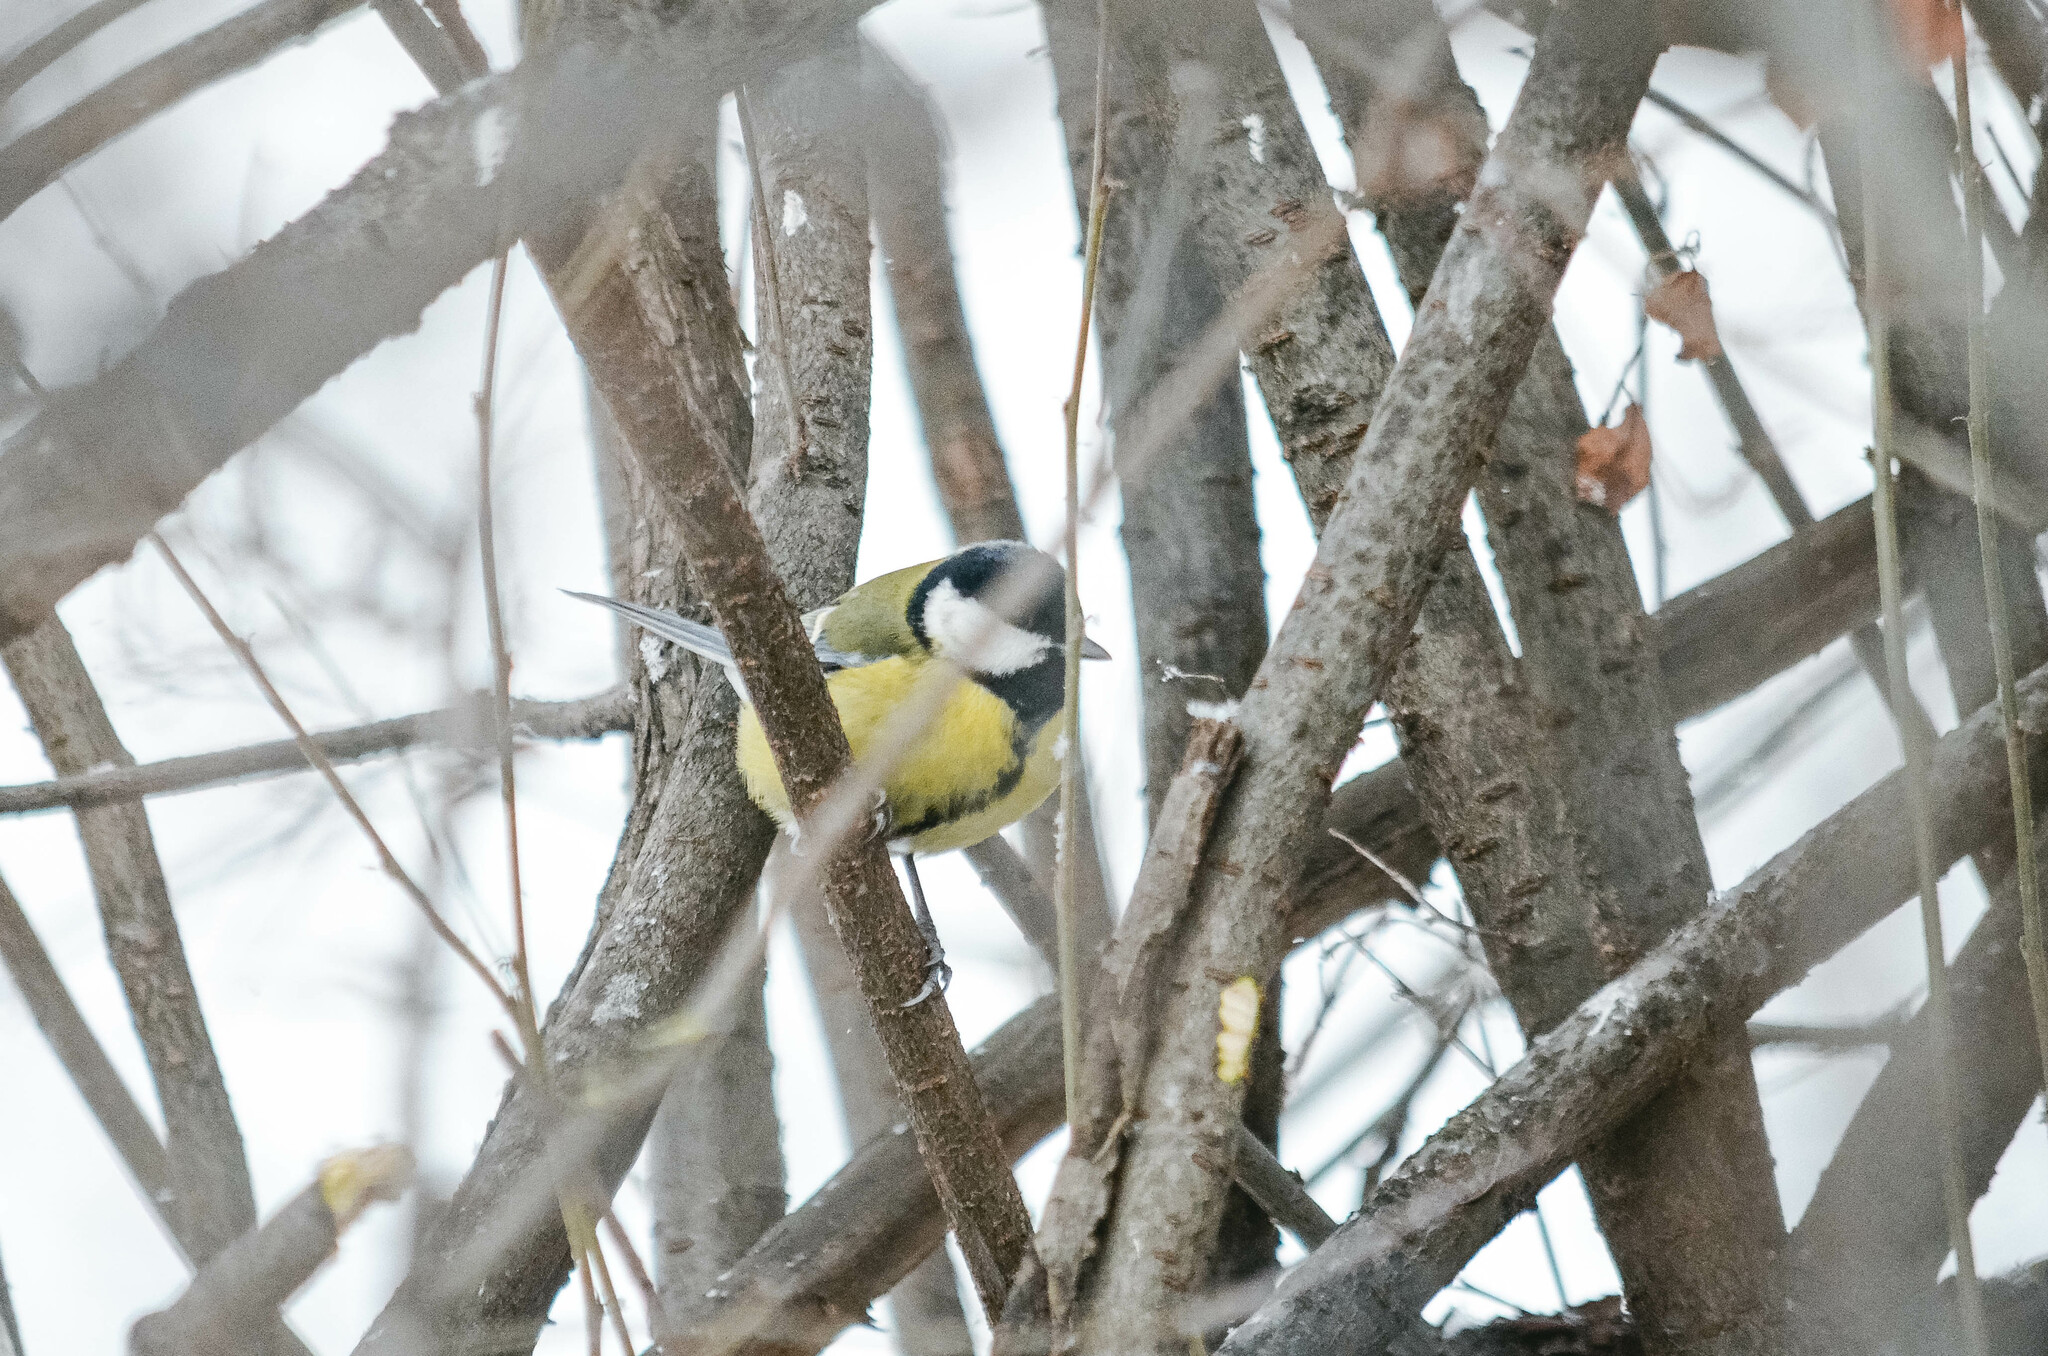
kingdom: Animalia
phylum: Chordata
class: Aves
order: Passeriformes
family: Paridae
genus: Parus
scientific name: Parus major
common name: Great tit
